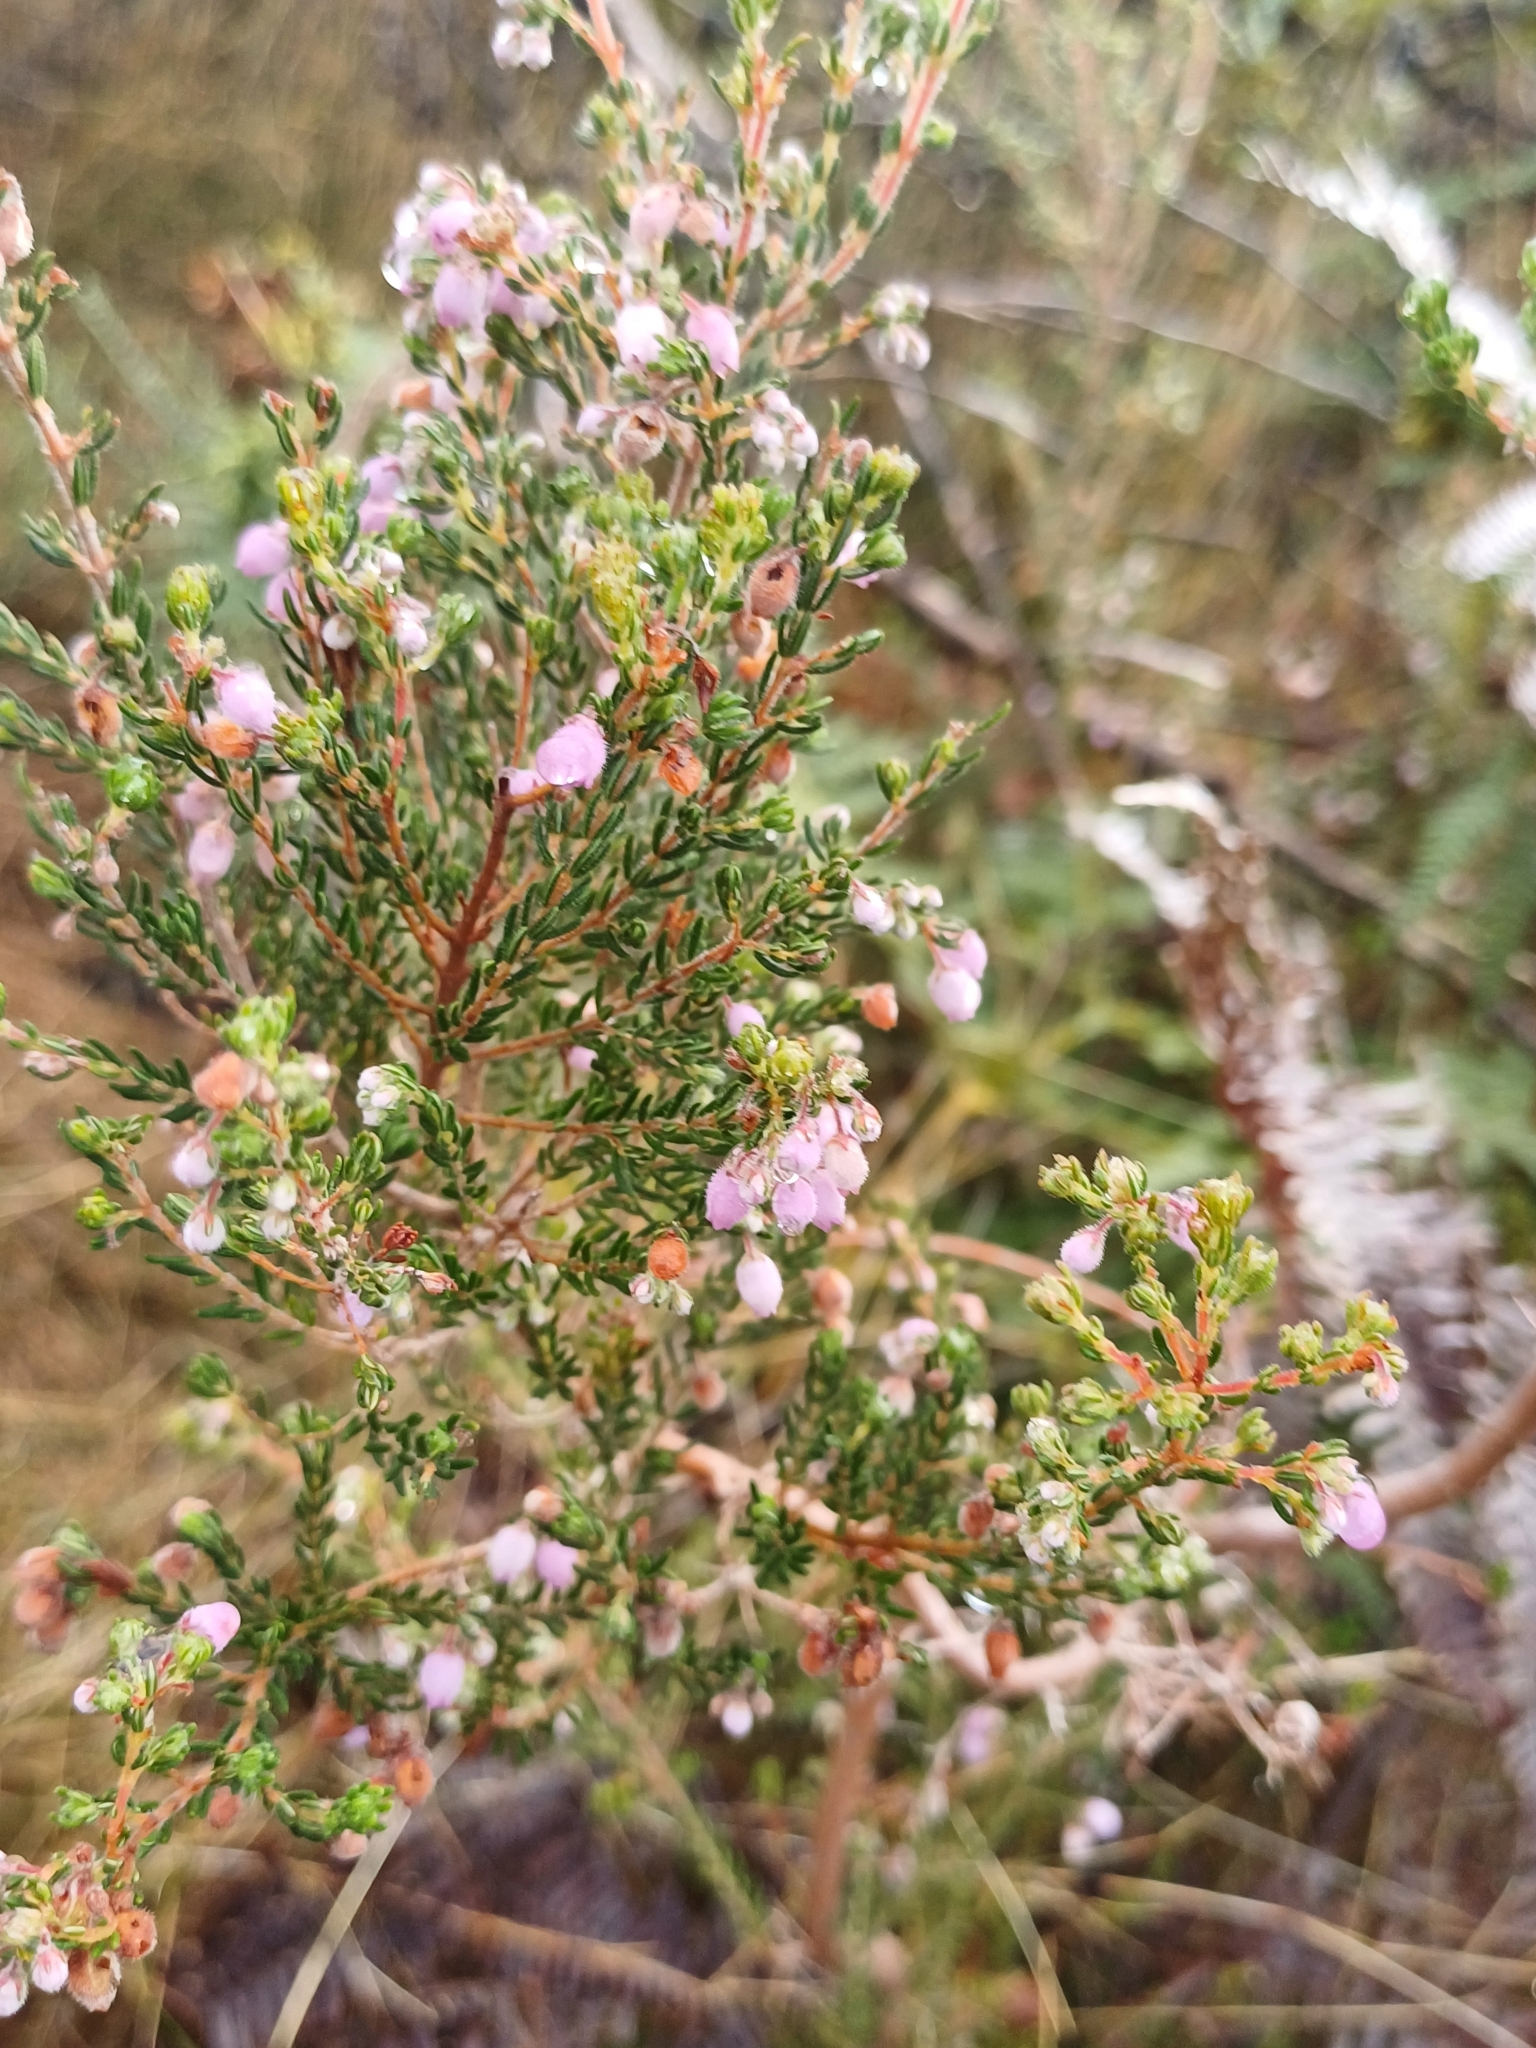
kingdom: Plantae
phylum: Tracheophyta
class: Magnoliopsida
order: Ericales
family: Ericaceae
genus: Erica
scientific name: Erica hirtiflora
